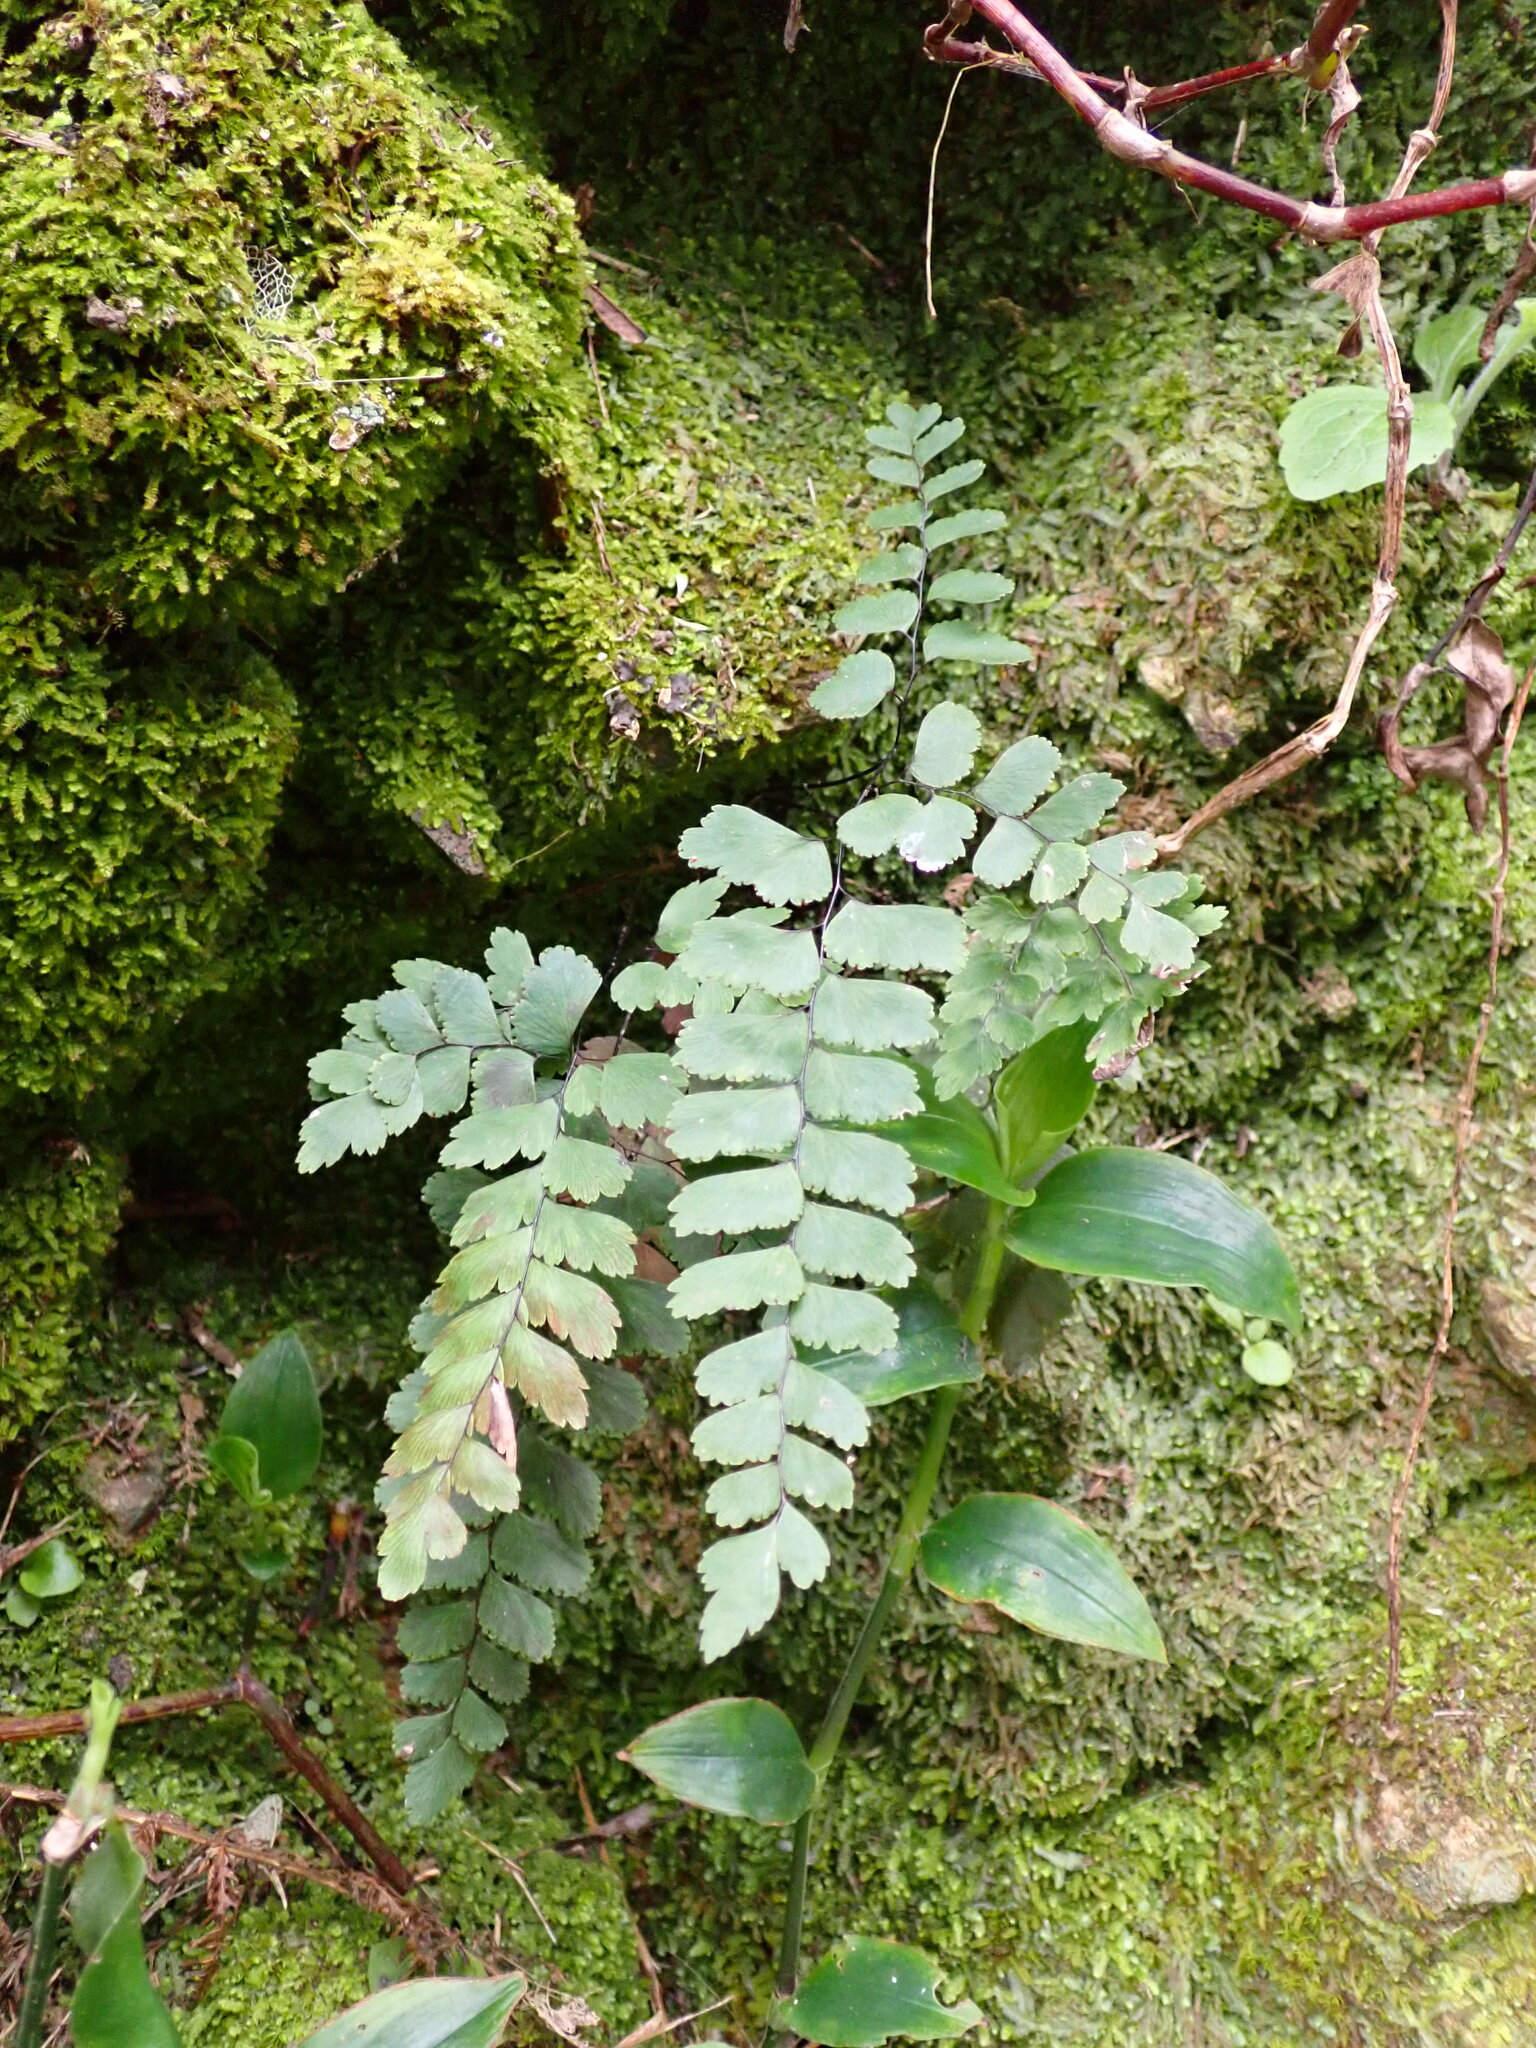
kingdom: Plantae
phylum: Tracheophyta
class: Polypodiopsida
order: Polypodiales
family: Pteridaceae
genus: Adiantum
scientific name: Adiantum cunninghamii
